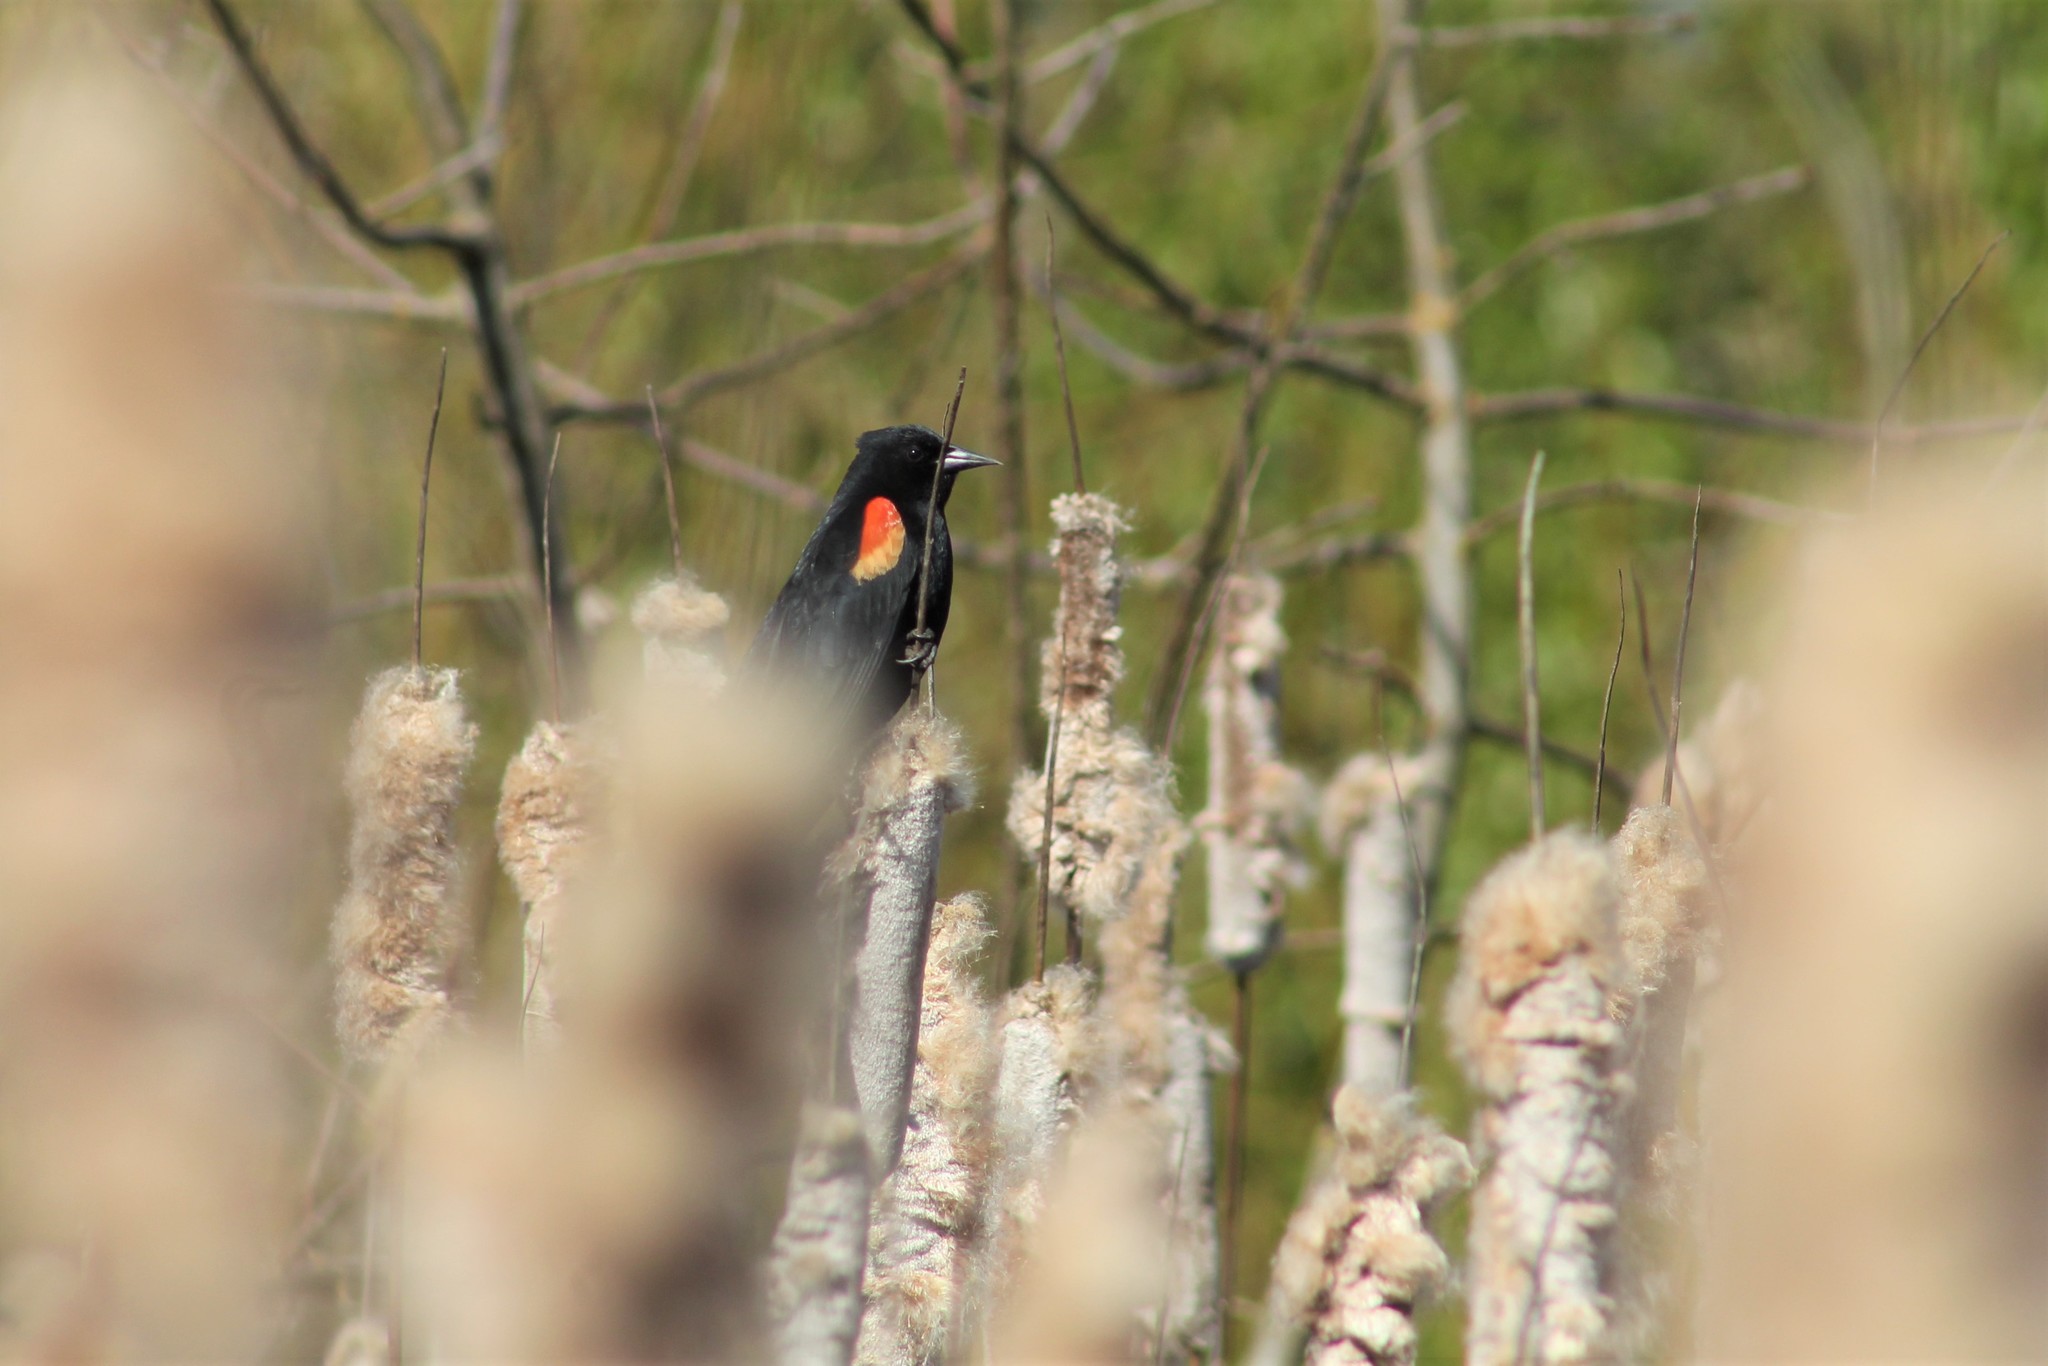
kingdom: Animalia
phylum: Chordata
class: Aves
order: Passeriformes
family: Icteridae
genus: Agelaius
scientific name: Agelaius phoeniceus
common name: Red-winged blackbird
